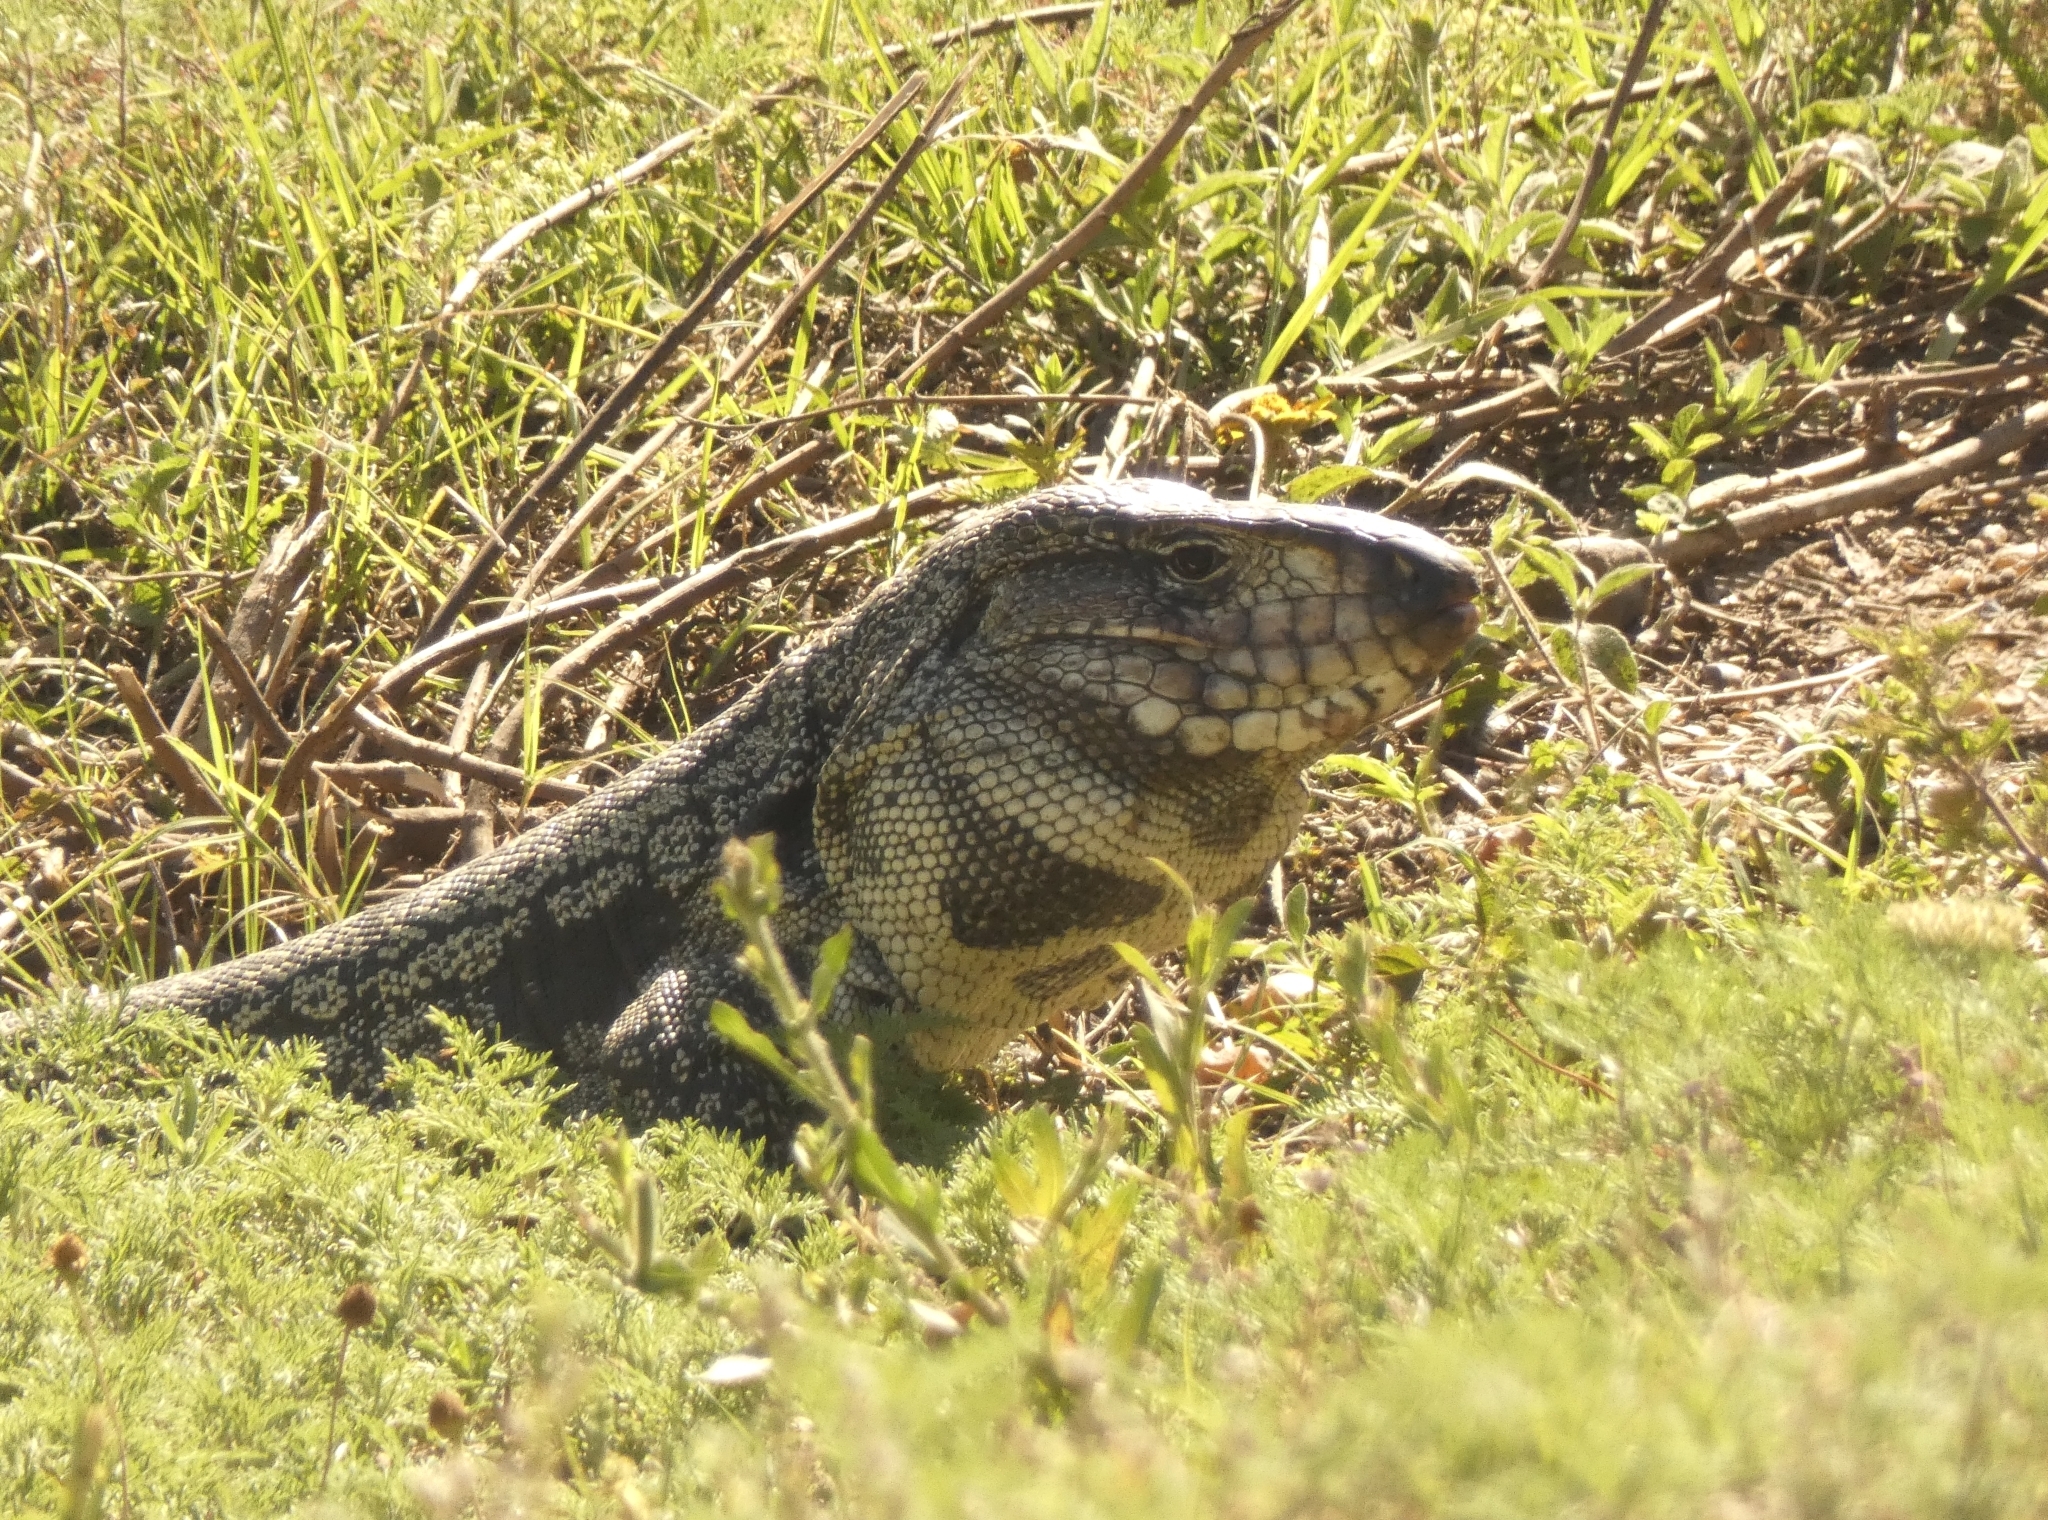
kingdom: Animalia
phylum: Chordata
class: Squamata
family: Teiidae
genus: Salvator
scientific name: Salvator merianae
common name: Argentine black and white tegu
